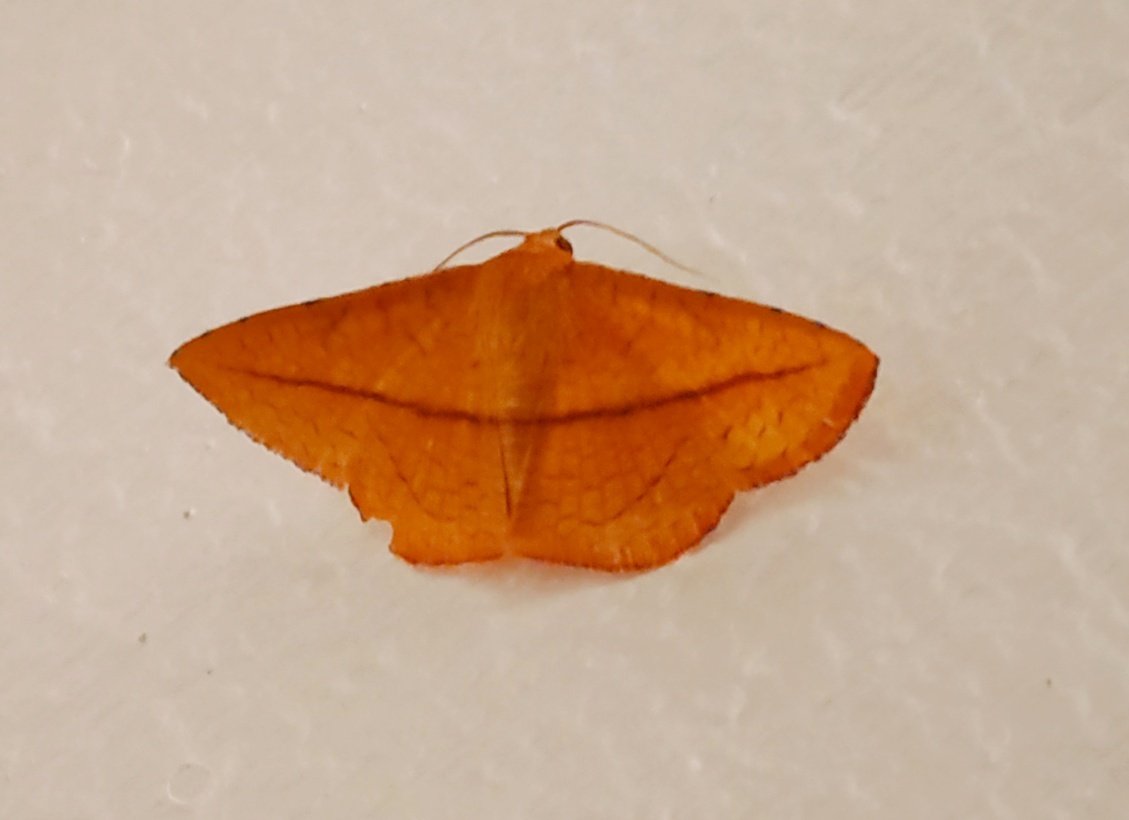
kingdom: Animalia
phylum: Arthropoda
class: Insecta
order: Lepidoptera
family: Thyrididae
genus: Striglina
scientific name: Striglina scitaria
